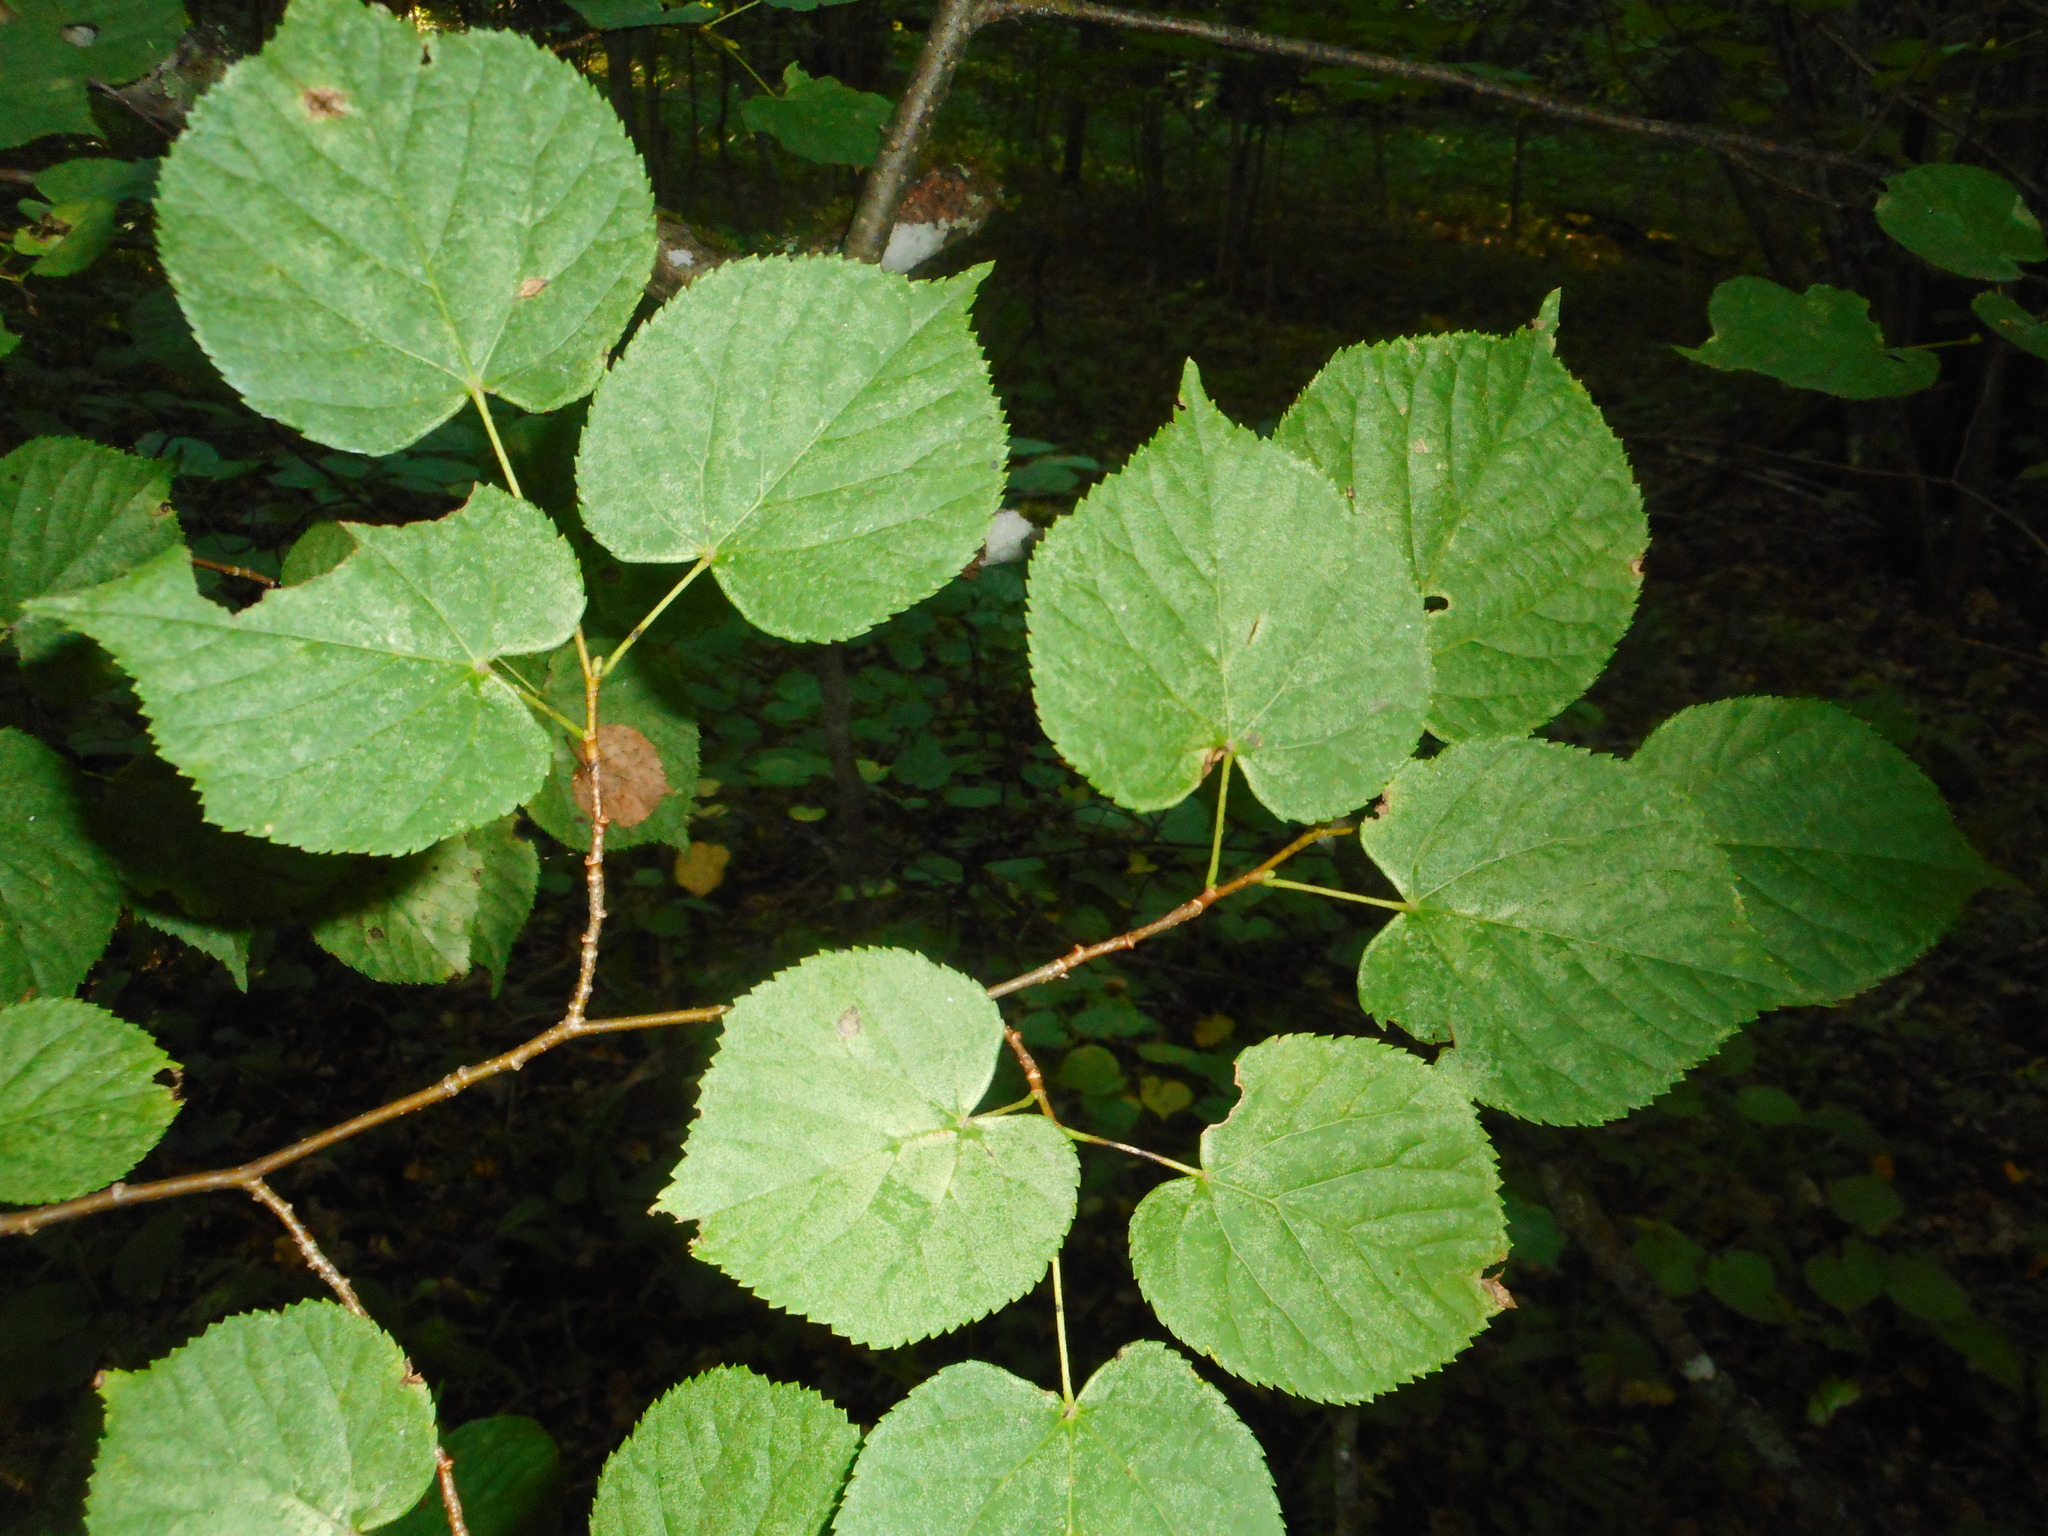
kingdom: Plantae
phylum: Tracheophyta
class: Magnoliopsida
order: Malvales
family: Malvaceae
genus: Tilia
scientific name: Tilia cordata
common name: Small-leaved lime
